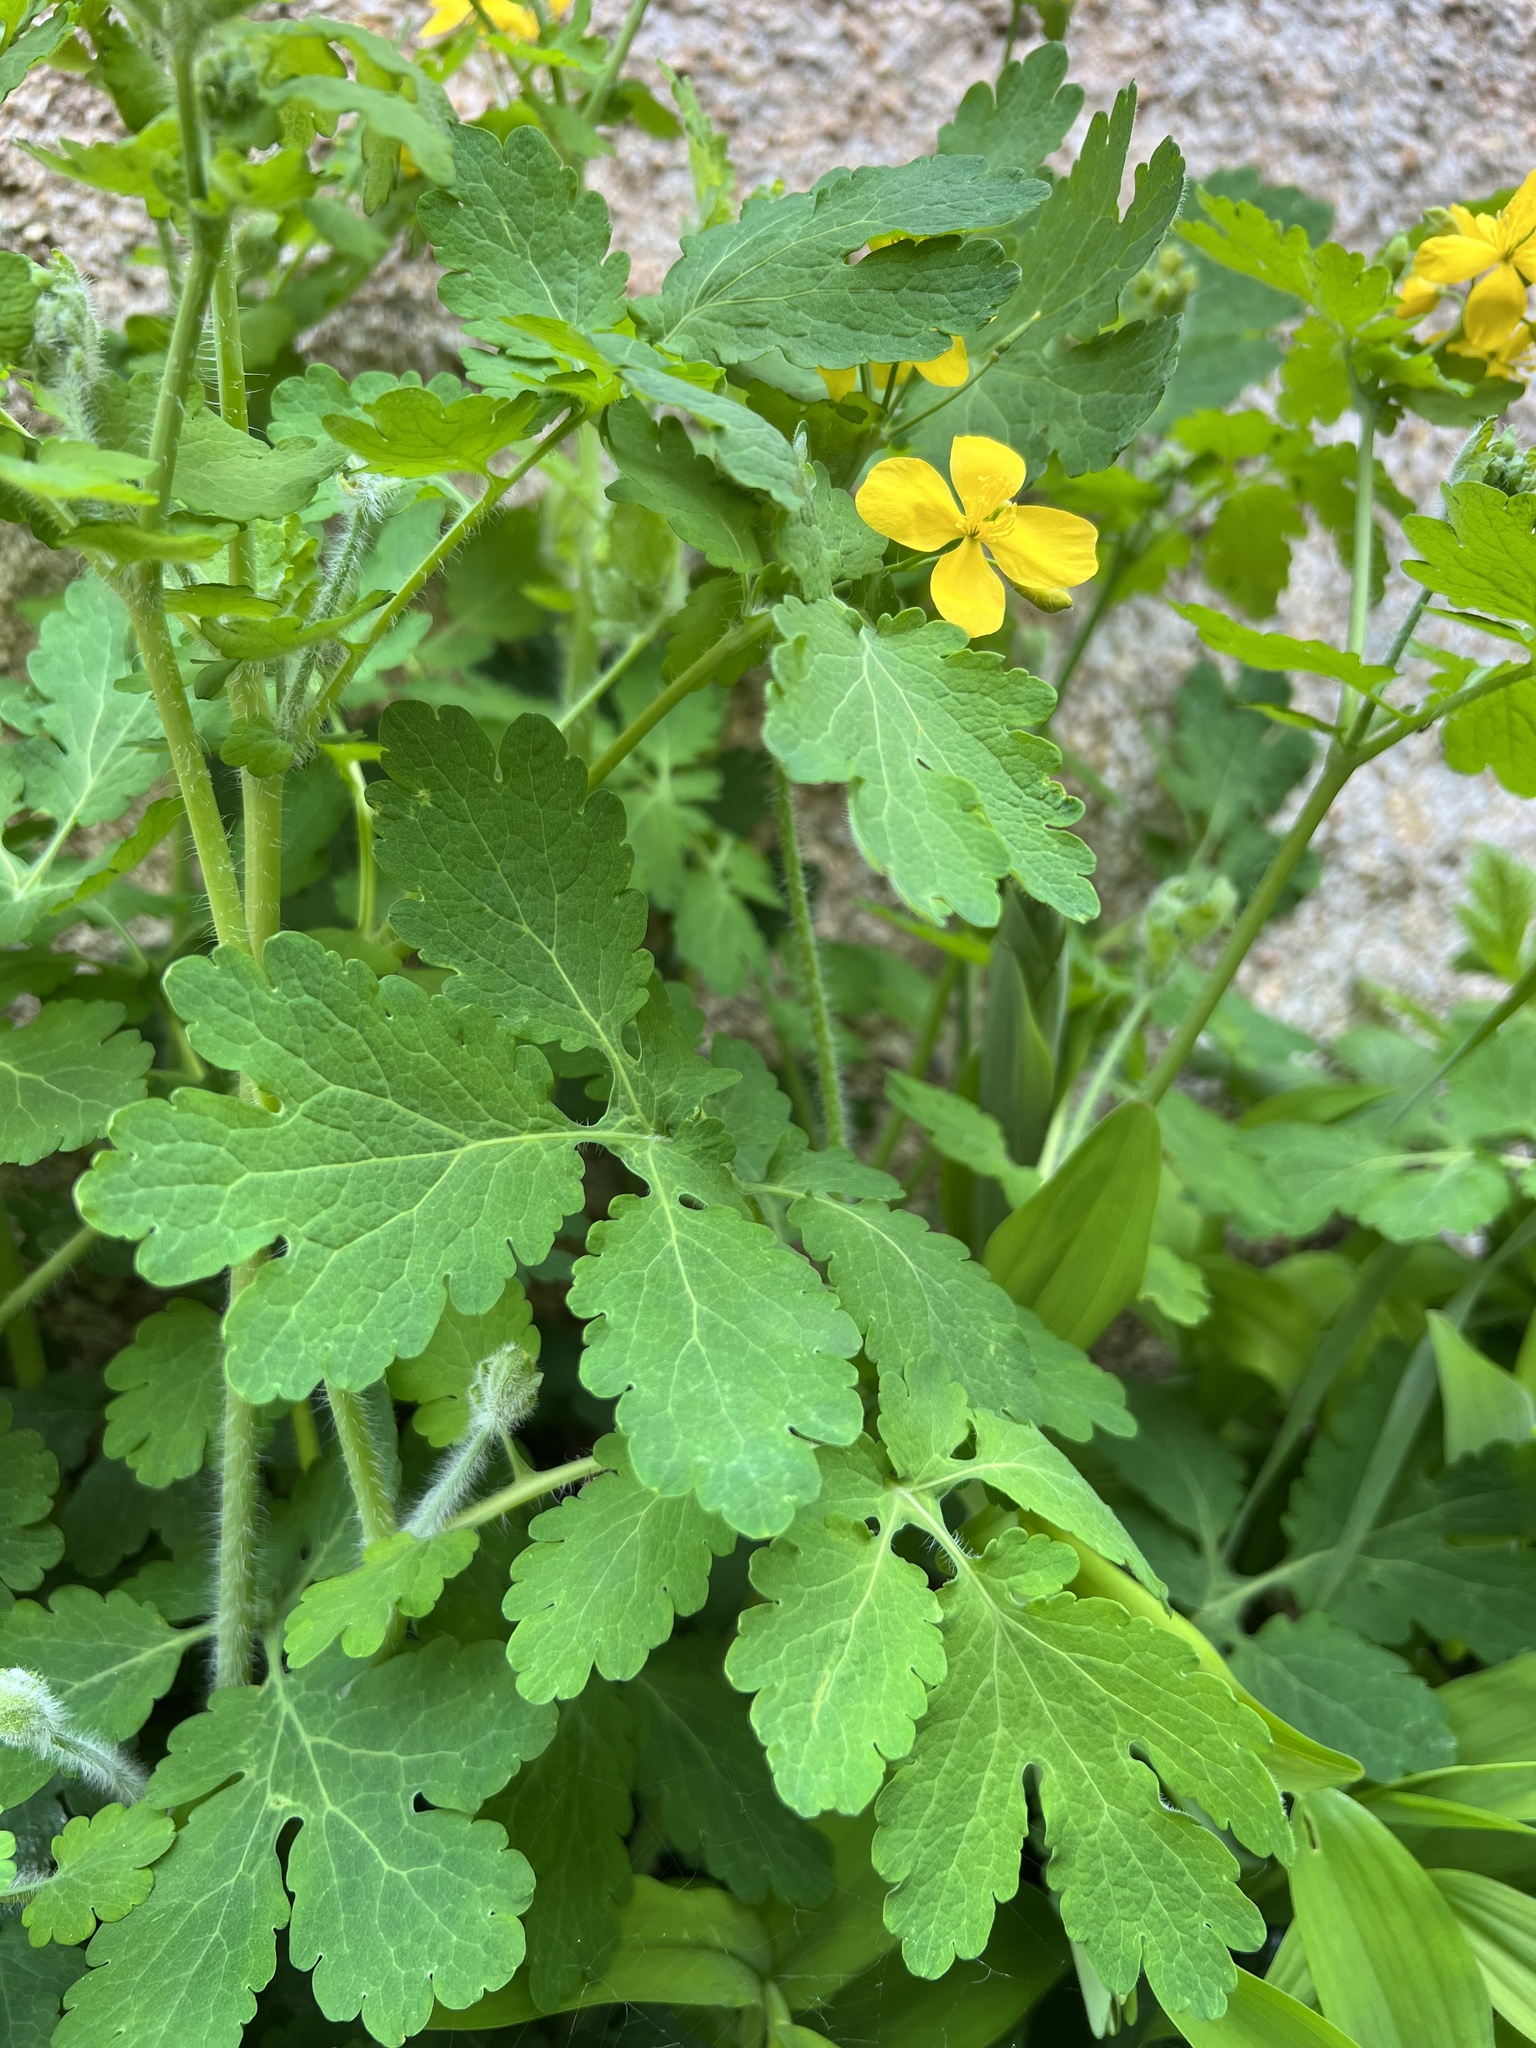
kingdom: Plantae
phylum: Tracheophyta
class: Magnoliopsida
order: Ranunculales
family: Papaveraceae
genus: Chelidonium
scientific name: Chelidonium majus
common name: Greater celandine
